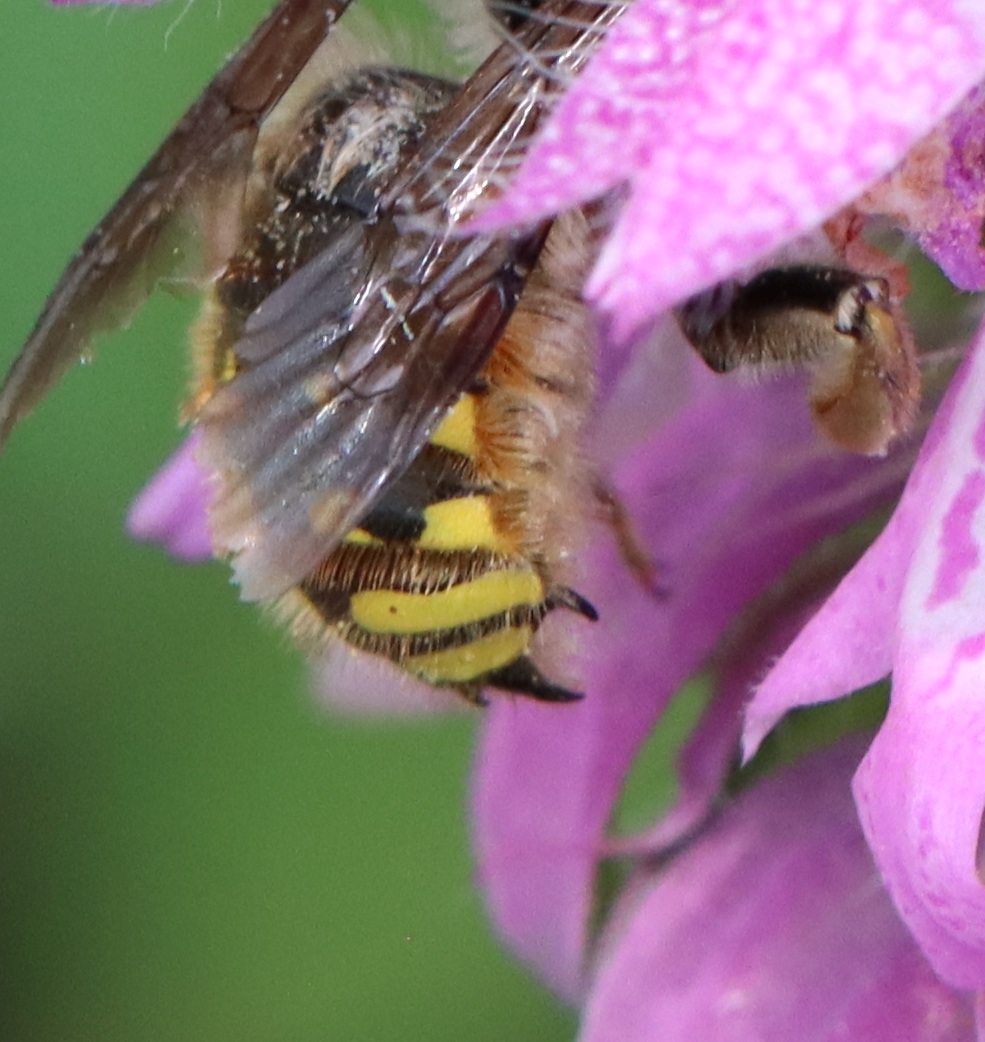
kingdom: Animalia
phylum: Arthropoda
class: Insecta
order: Hymenoptera
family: Megachilidae
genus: Anthidium
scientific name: Anthidium manicatum
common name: Wool carder bee
